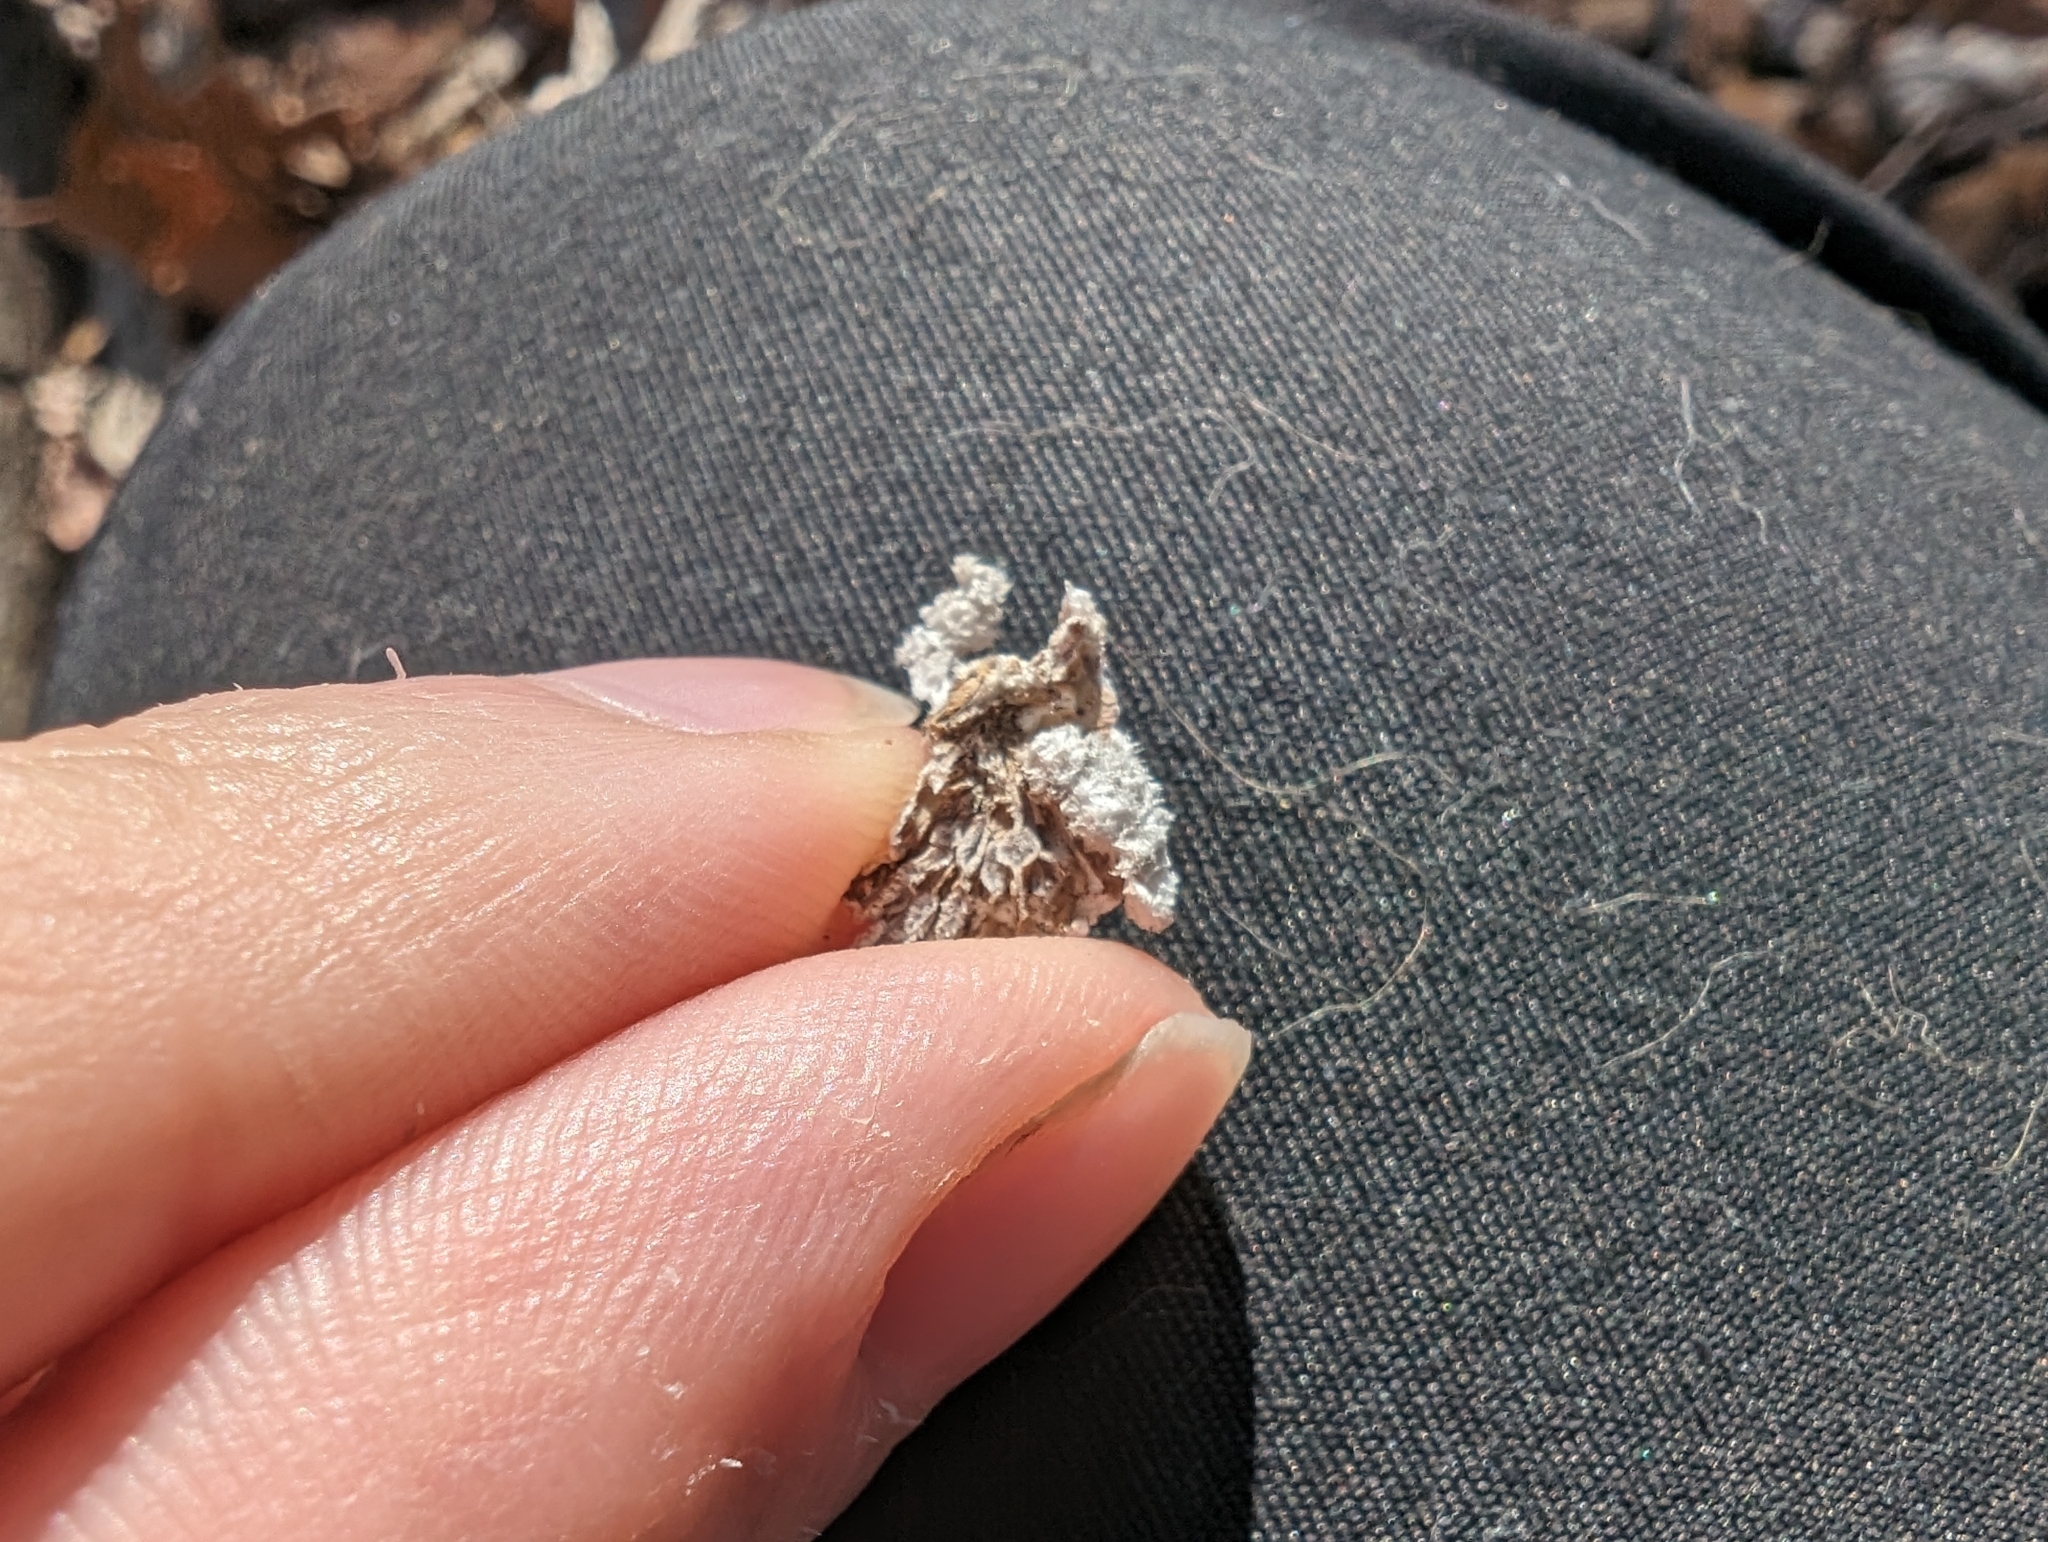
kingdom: Fungi
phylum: Basidiomycota
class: Agaricomycetes
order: Agaricales
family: Schizophyllaceae
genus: Schizophyllum
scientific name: Schizophyllum commune
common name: Common porecrust
